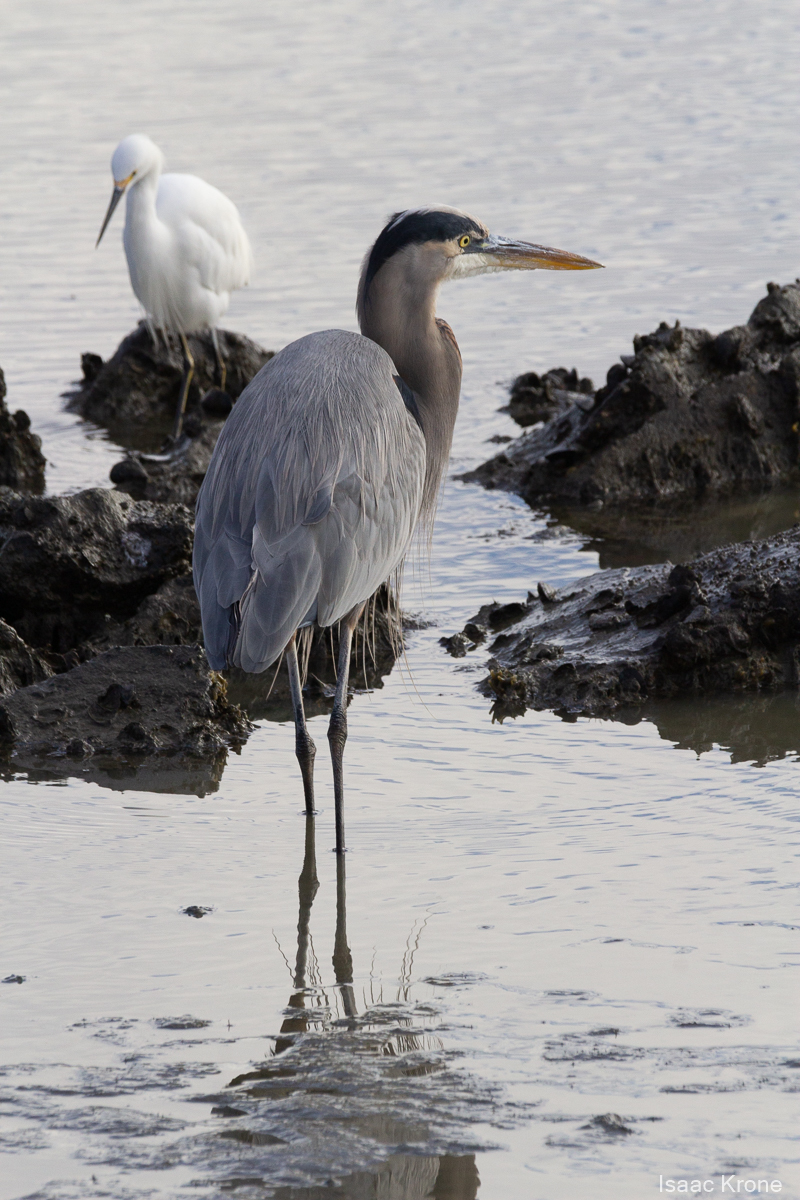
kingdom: Animalia
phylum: Chordata
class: Aves
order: Pelecaniformes
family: Ardeidae
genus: Ardea
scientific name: Ardea herodias
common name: Great blue heron
